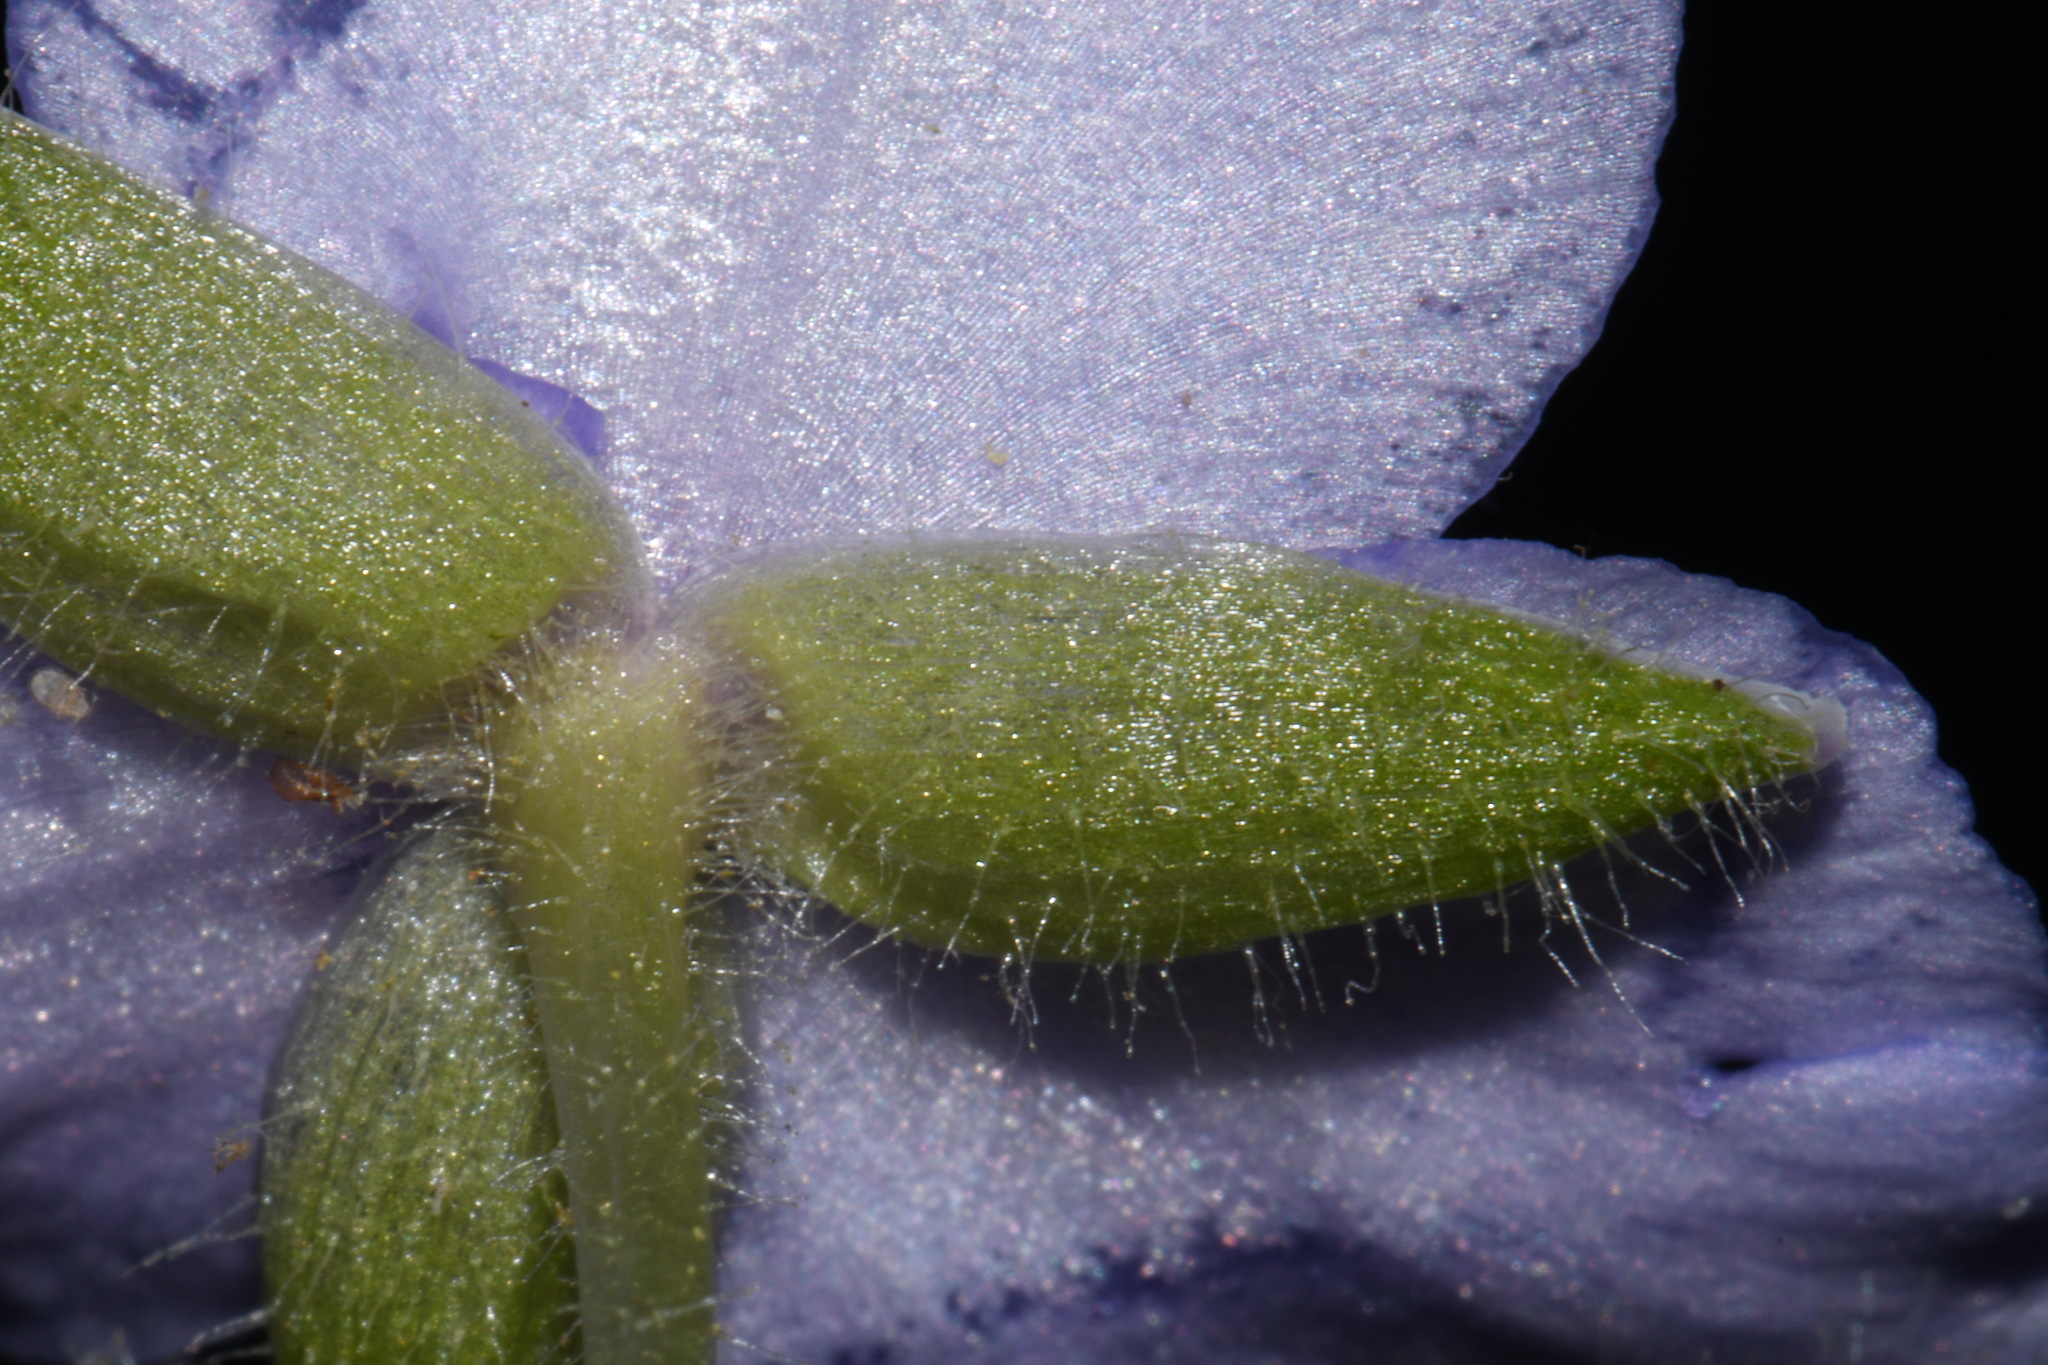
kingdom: Plantae
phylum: Tracheophyta
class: Liliopsida
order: Commelinales
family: Commelinaceae
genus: Tradescantia
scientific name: Tradescantia ernestiana
